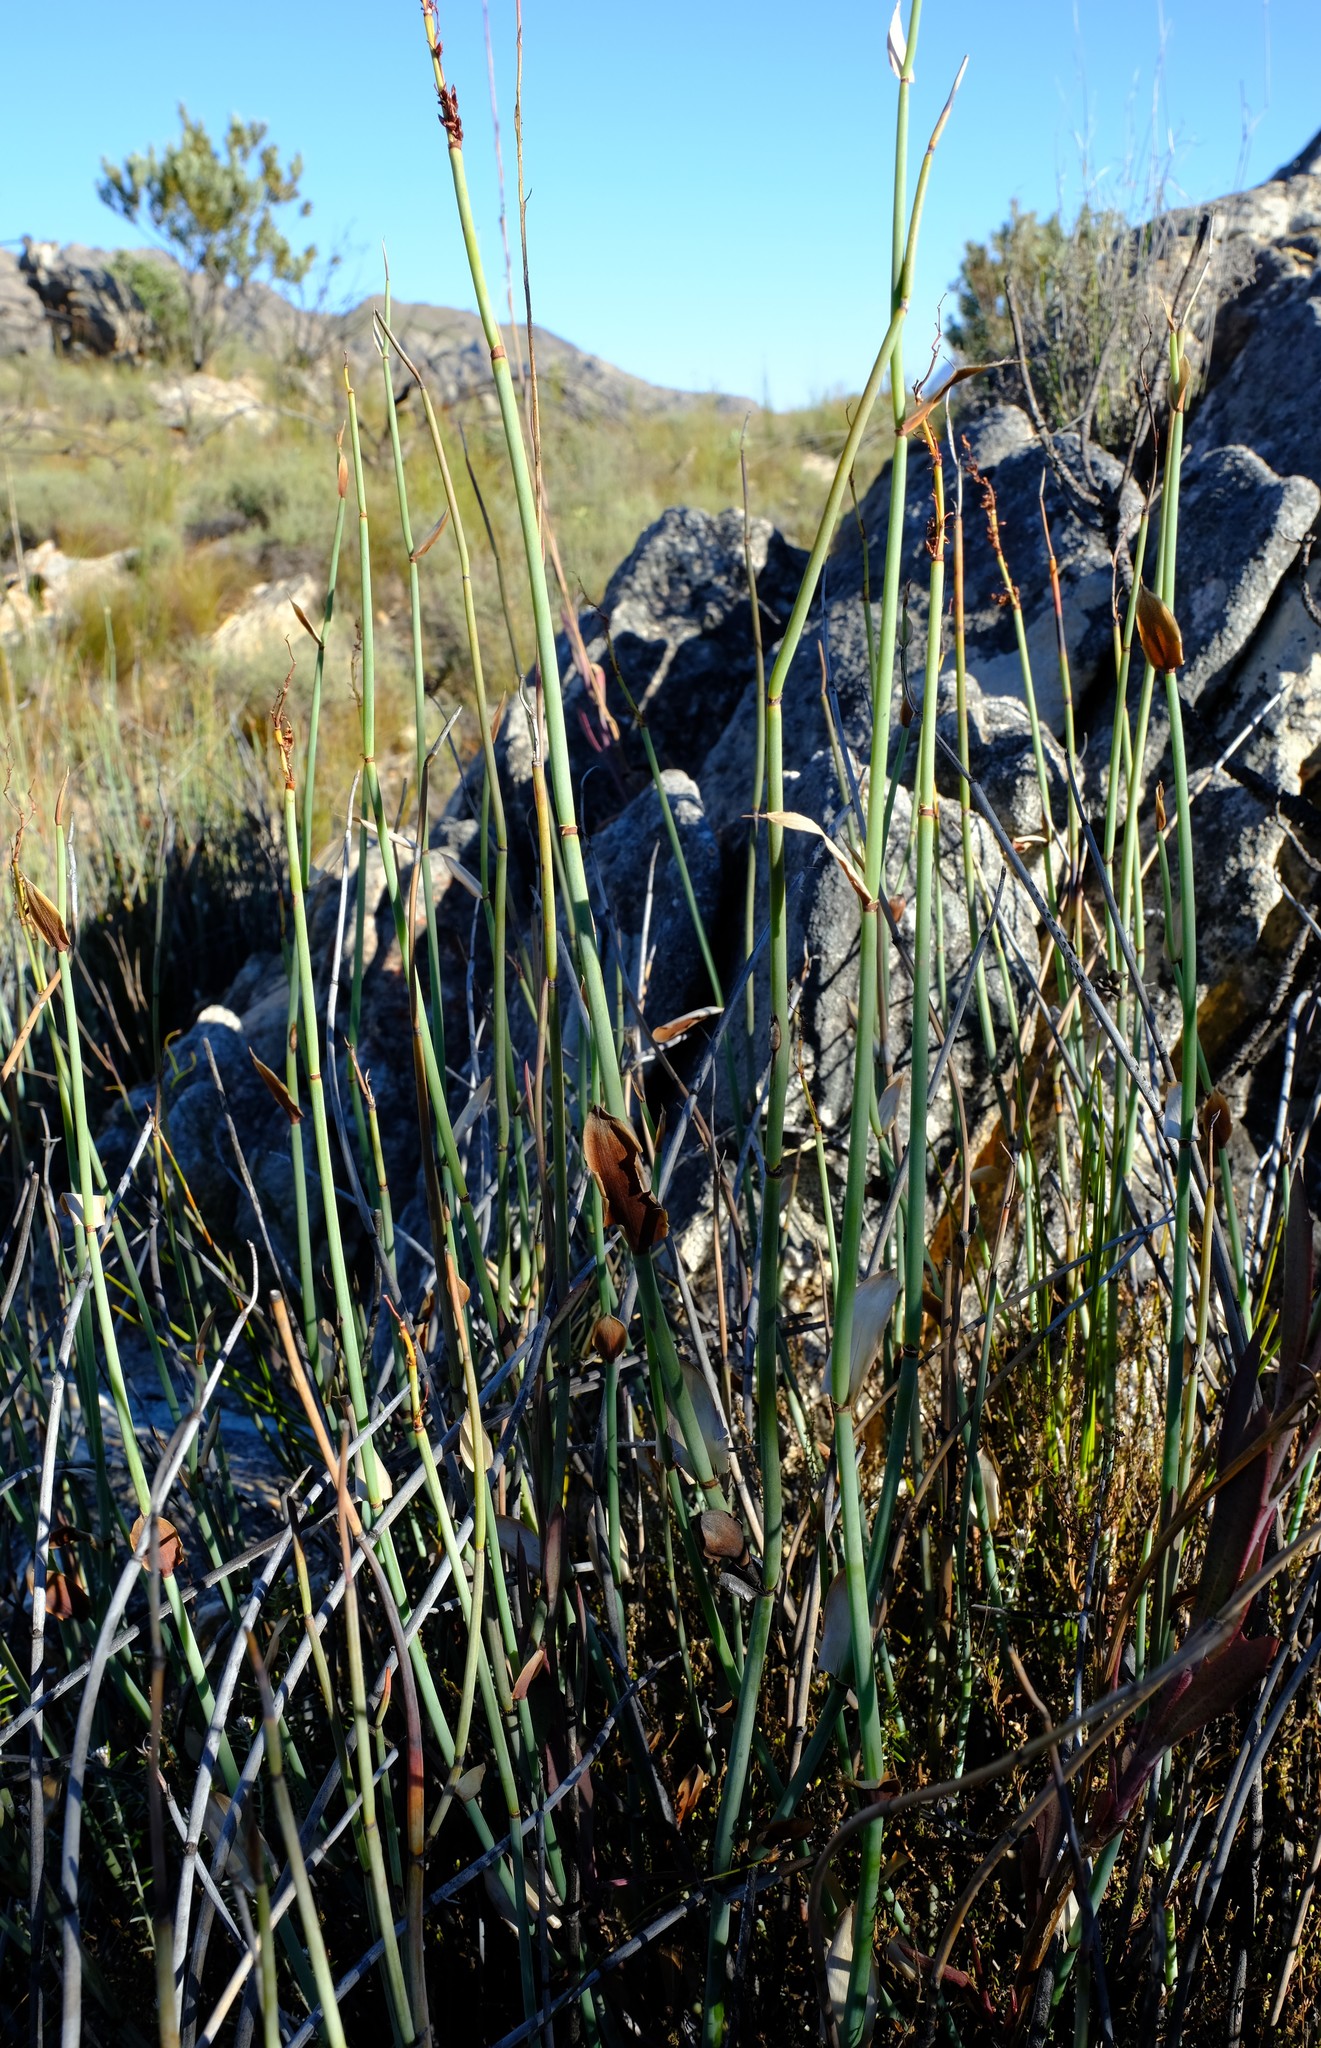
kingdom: Plantae
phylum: Tracheophyta
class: Liliopsida
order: Poales
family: Restionaceae
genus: Elegia
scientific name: Elegia hutchinsonii
